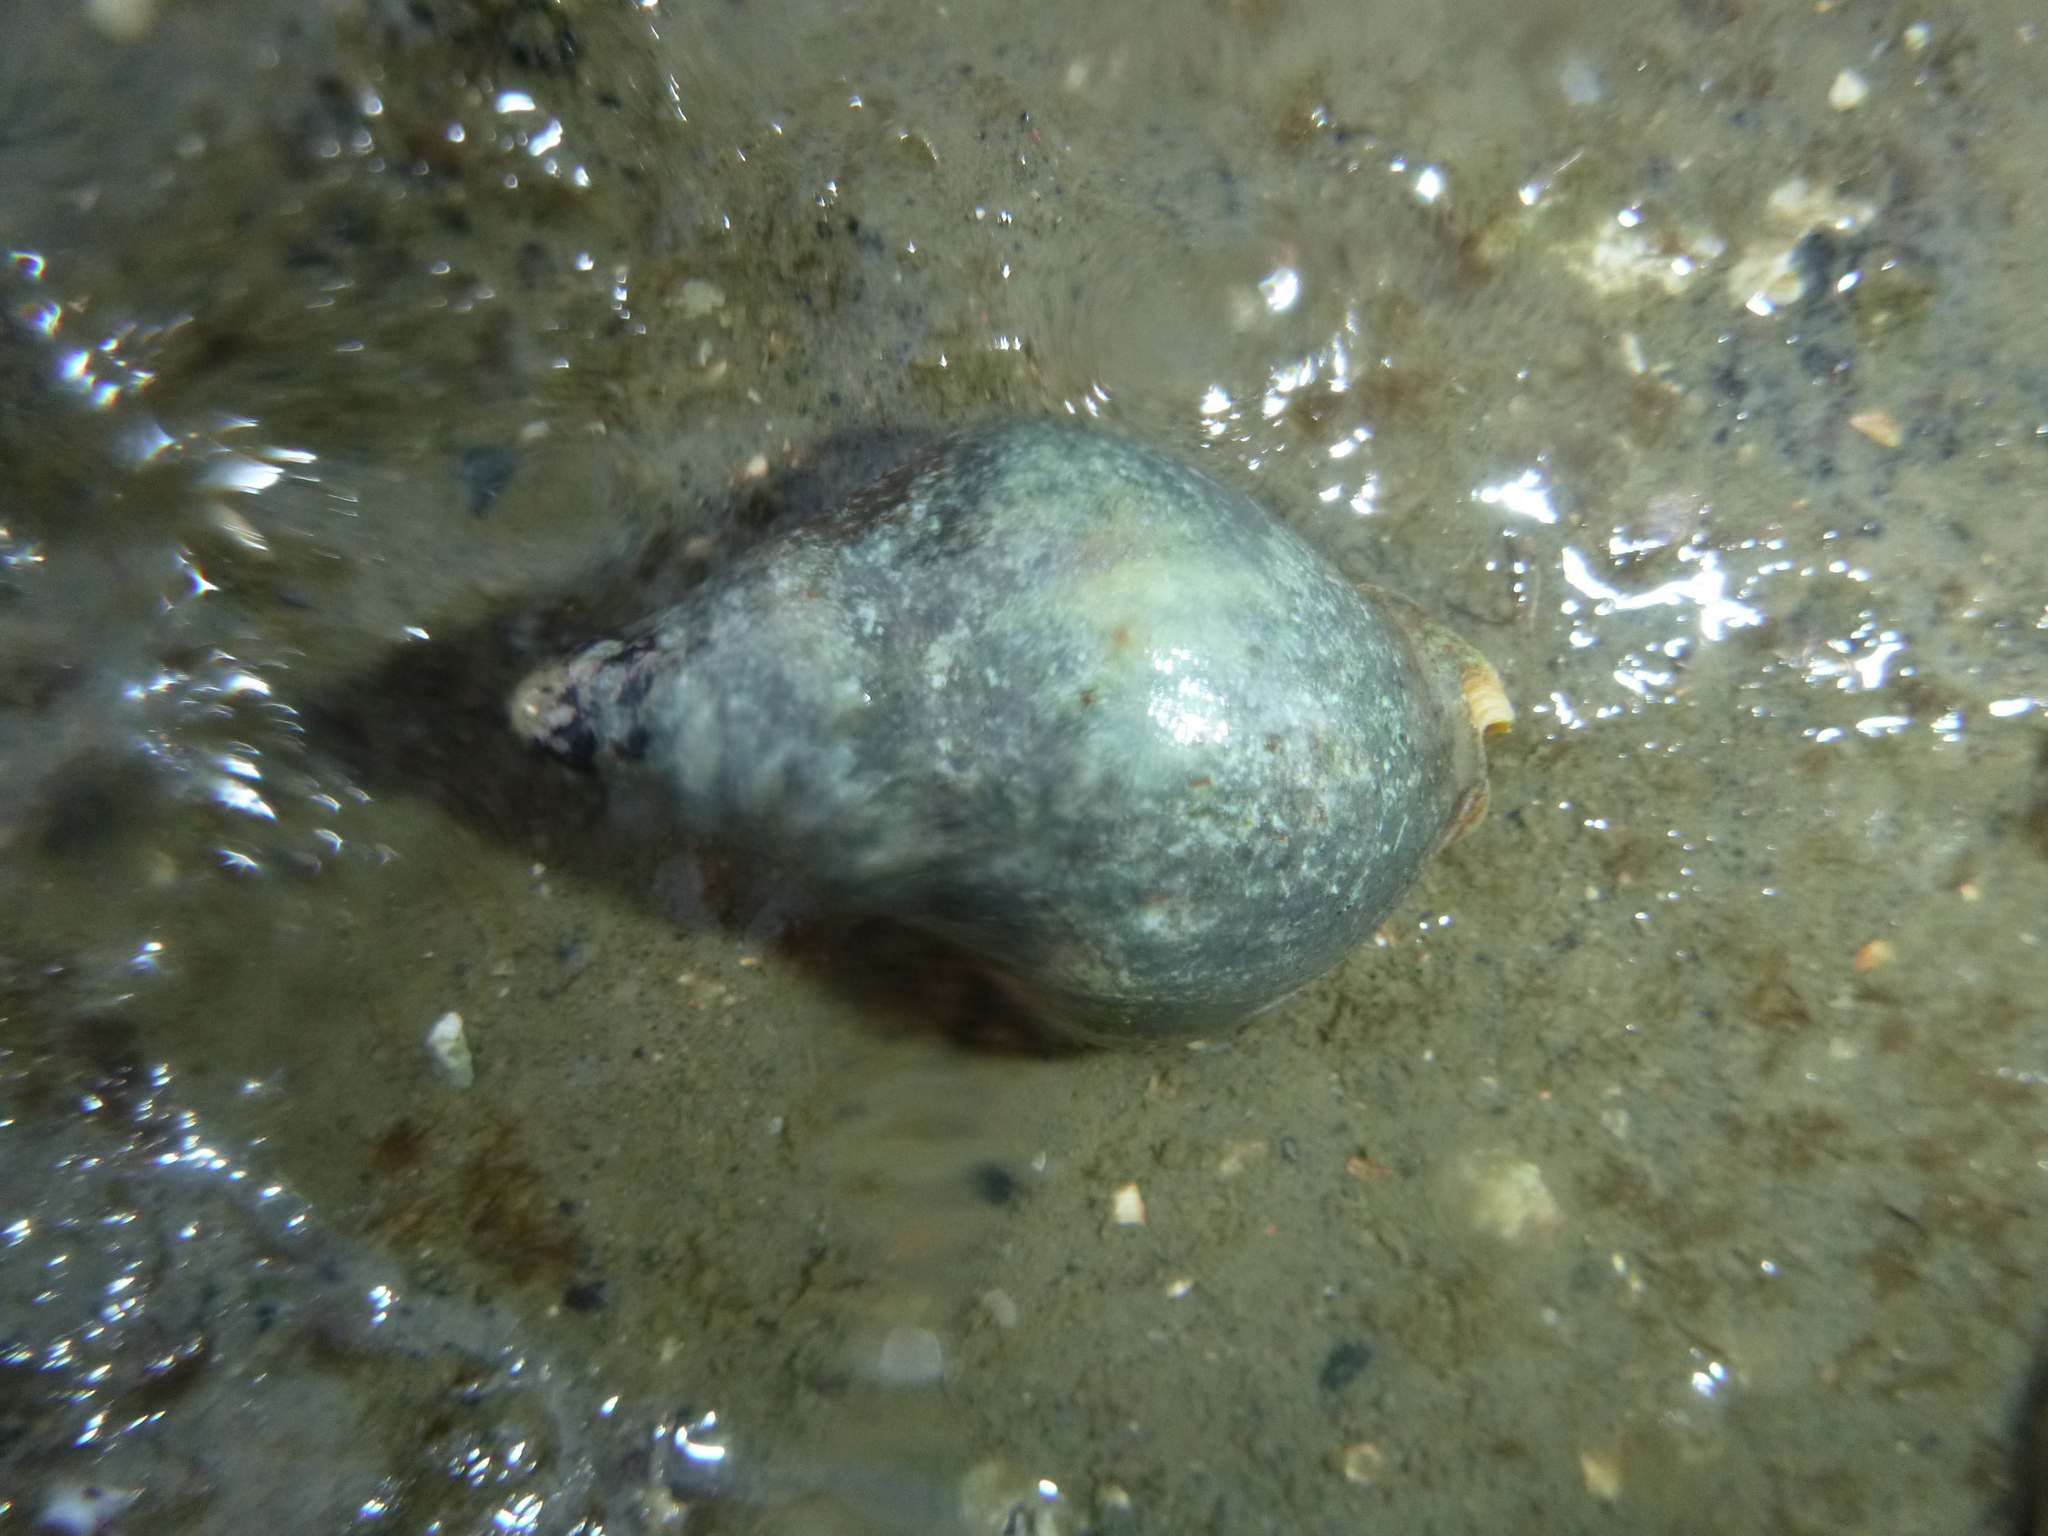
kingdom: Animalia
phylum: Mollusca
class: Gastropoda
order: Neogastropoda
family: Cominellidae
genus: Cominella
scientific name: Cominella adspersa
